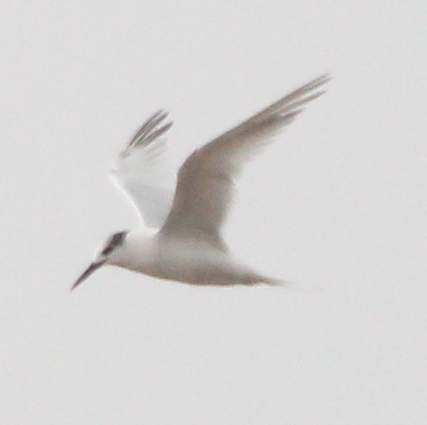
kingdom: Animalia
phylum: Chordata
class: Aves
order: Charadriiformes
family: Laridae
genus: Thalasseus
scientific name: Thalasseus sandvicensis
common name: Sandwich tern
